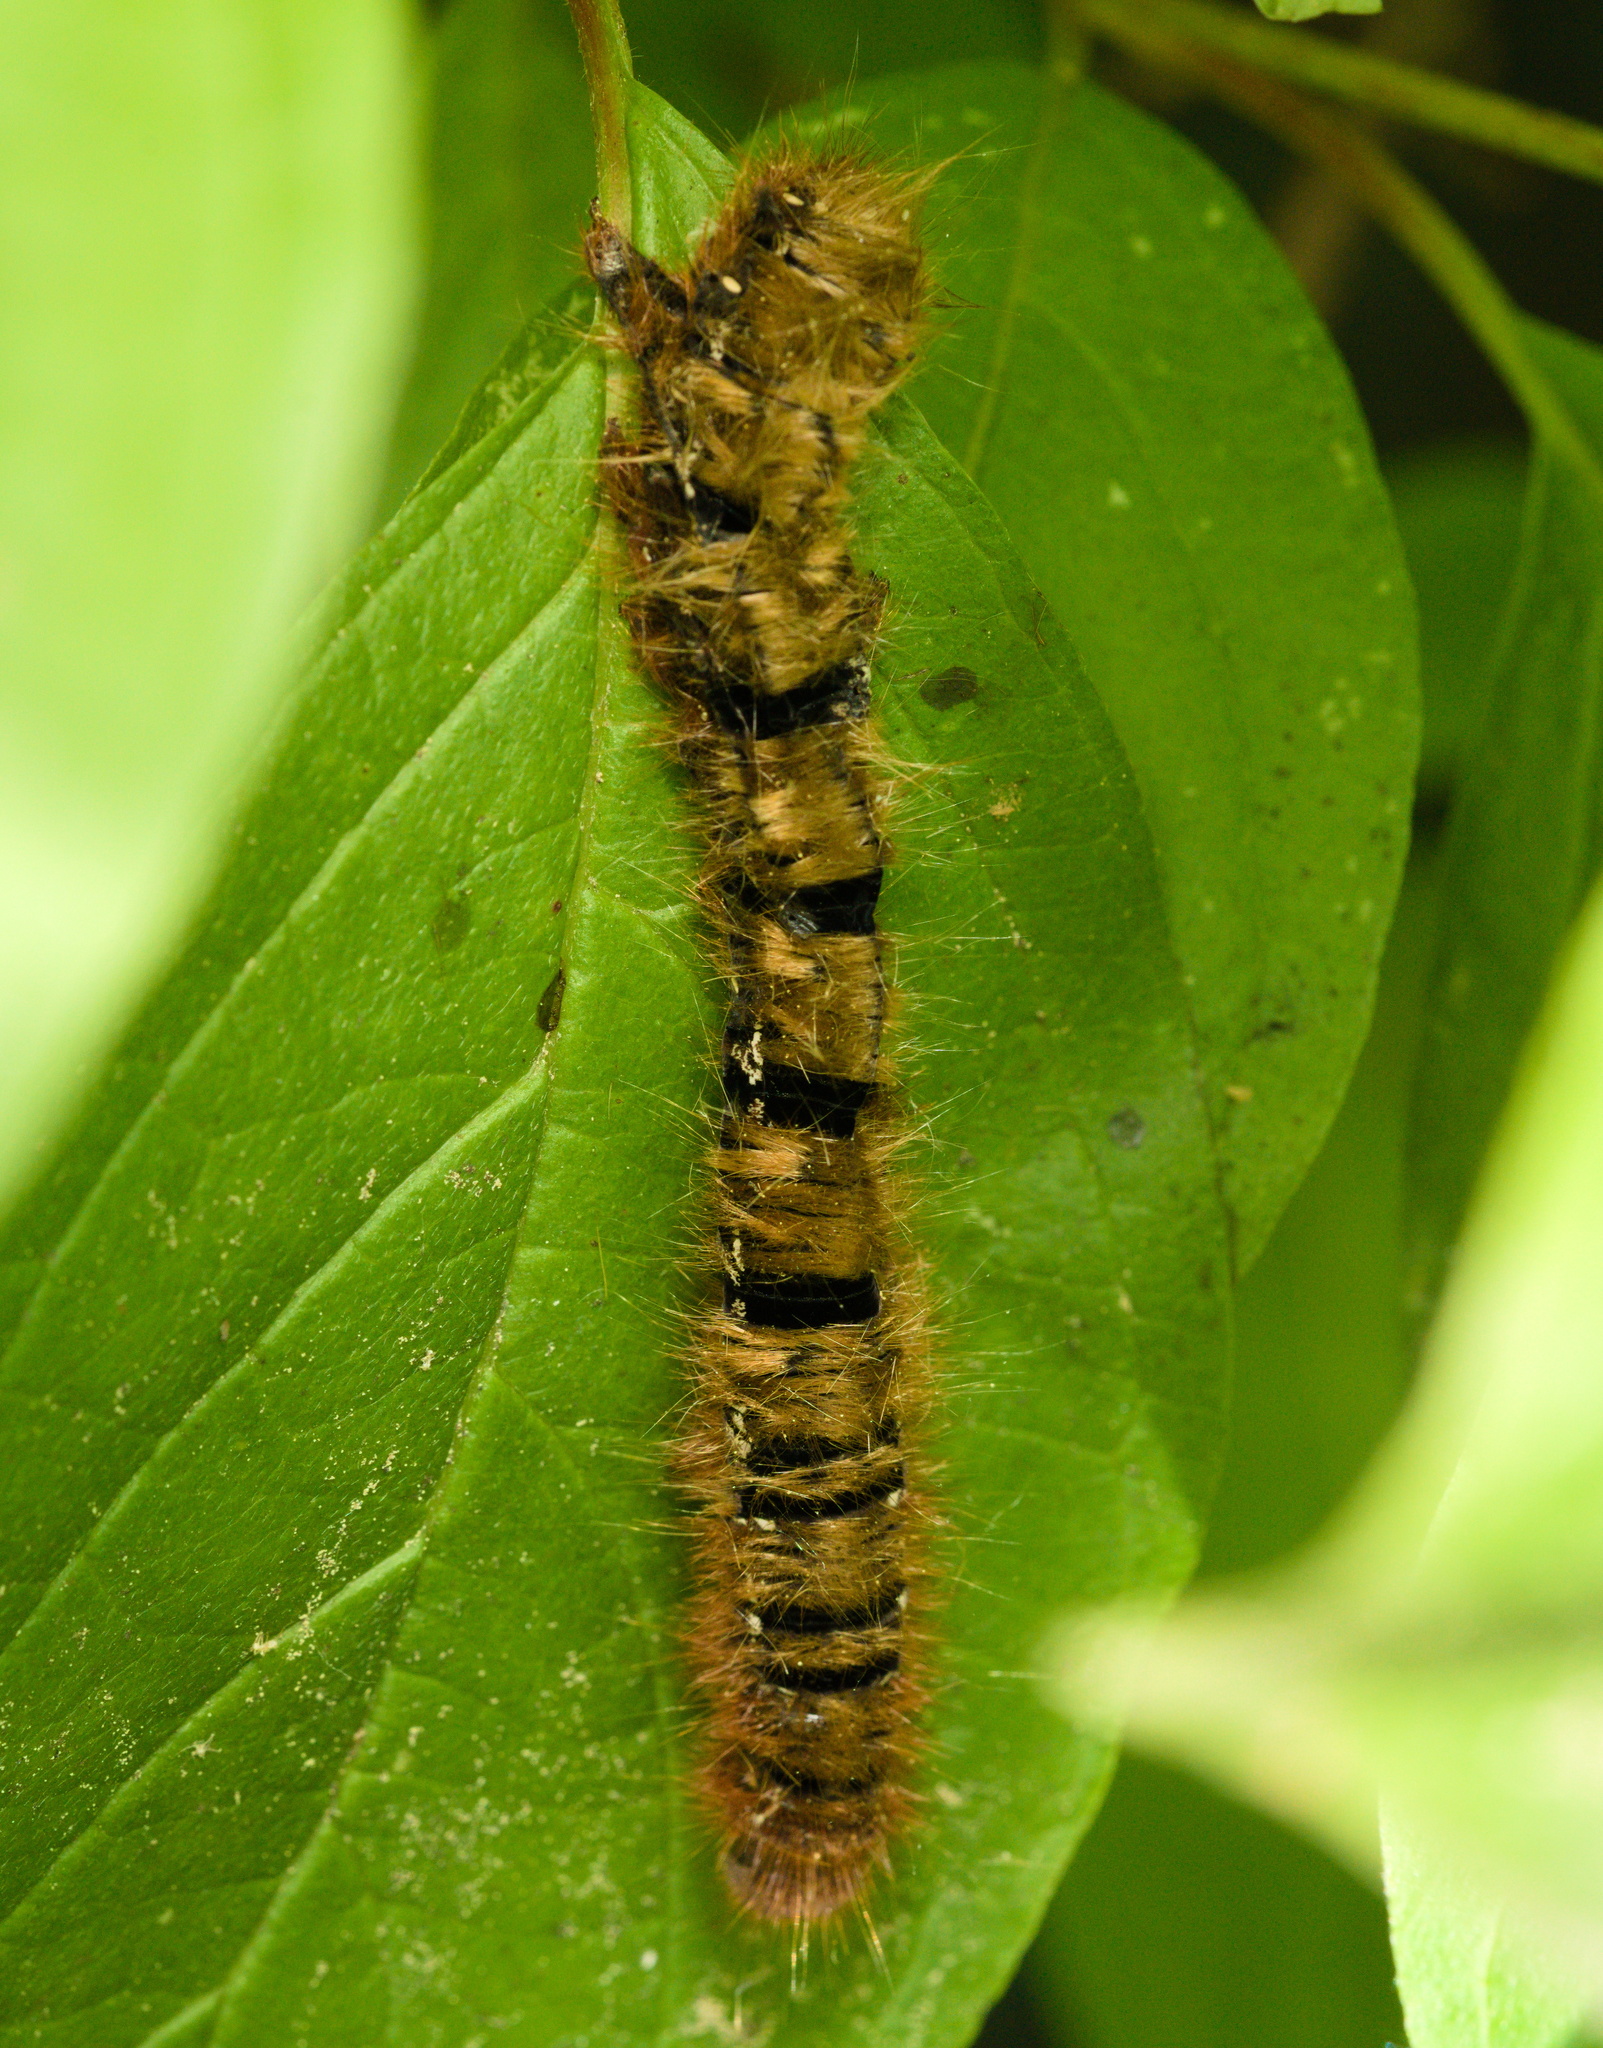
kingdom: Animalia
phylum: Arthropoda
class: Insecta
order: Lepidoptera
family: Lasiocampidae
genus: Lasiocampa
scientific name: Lasiocampa quercus
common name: Oak eggar
